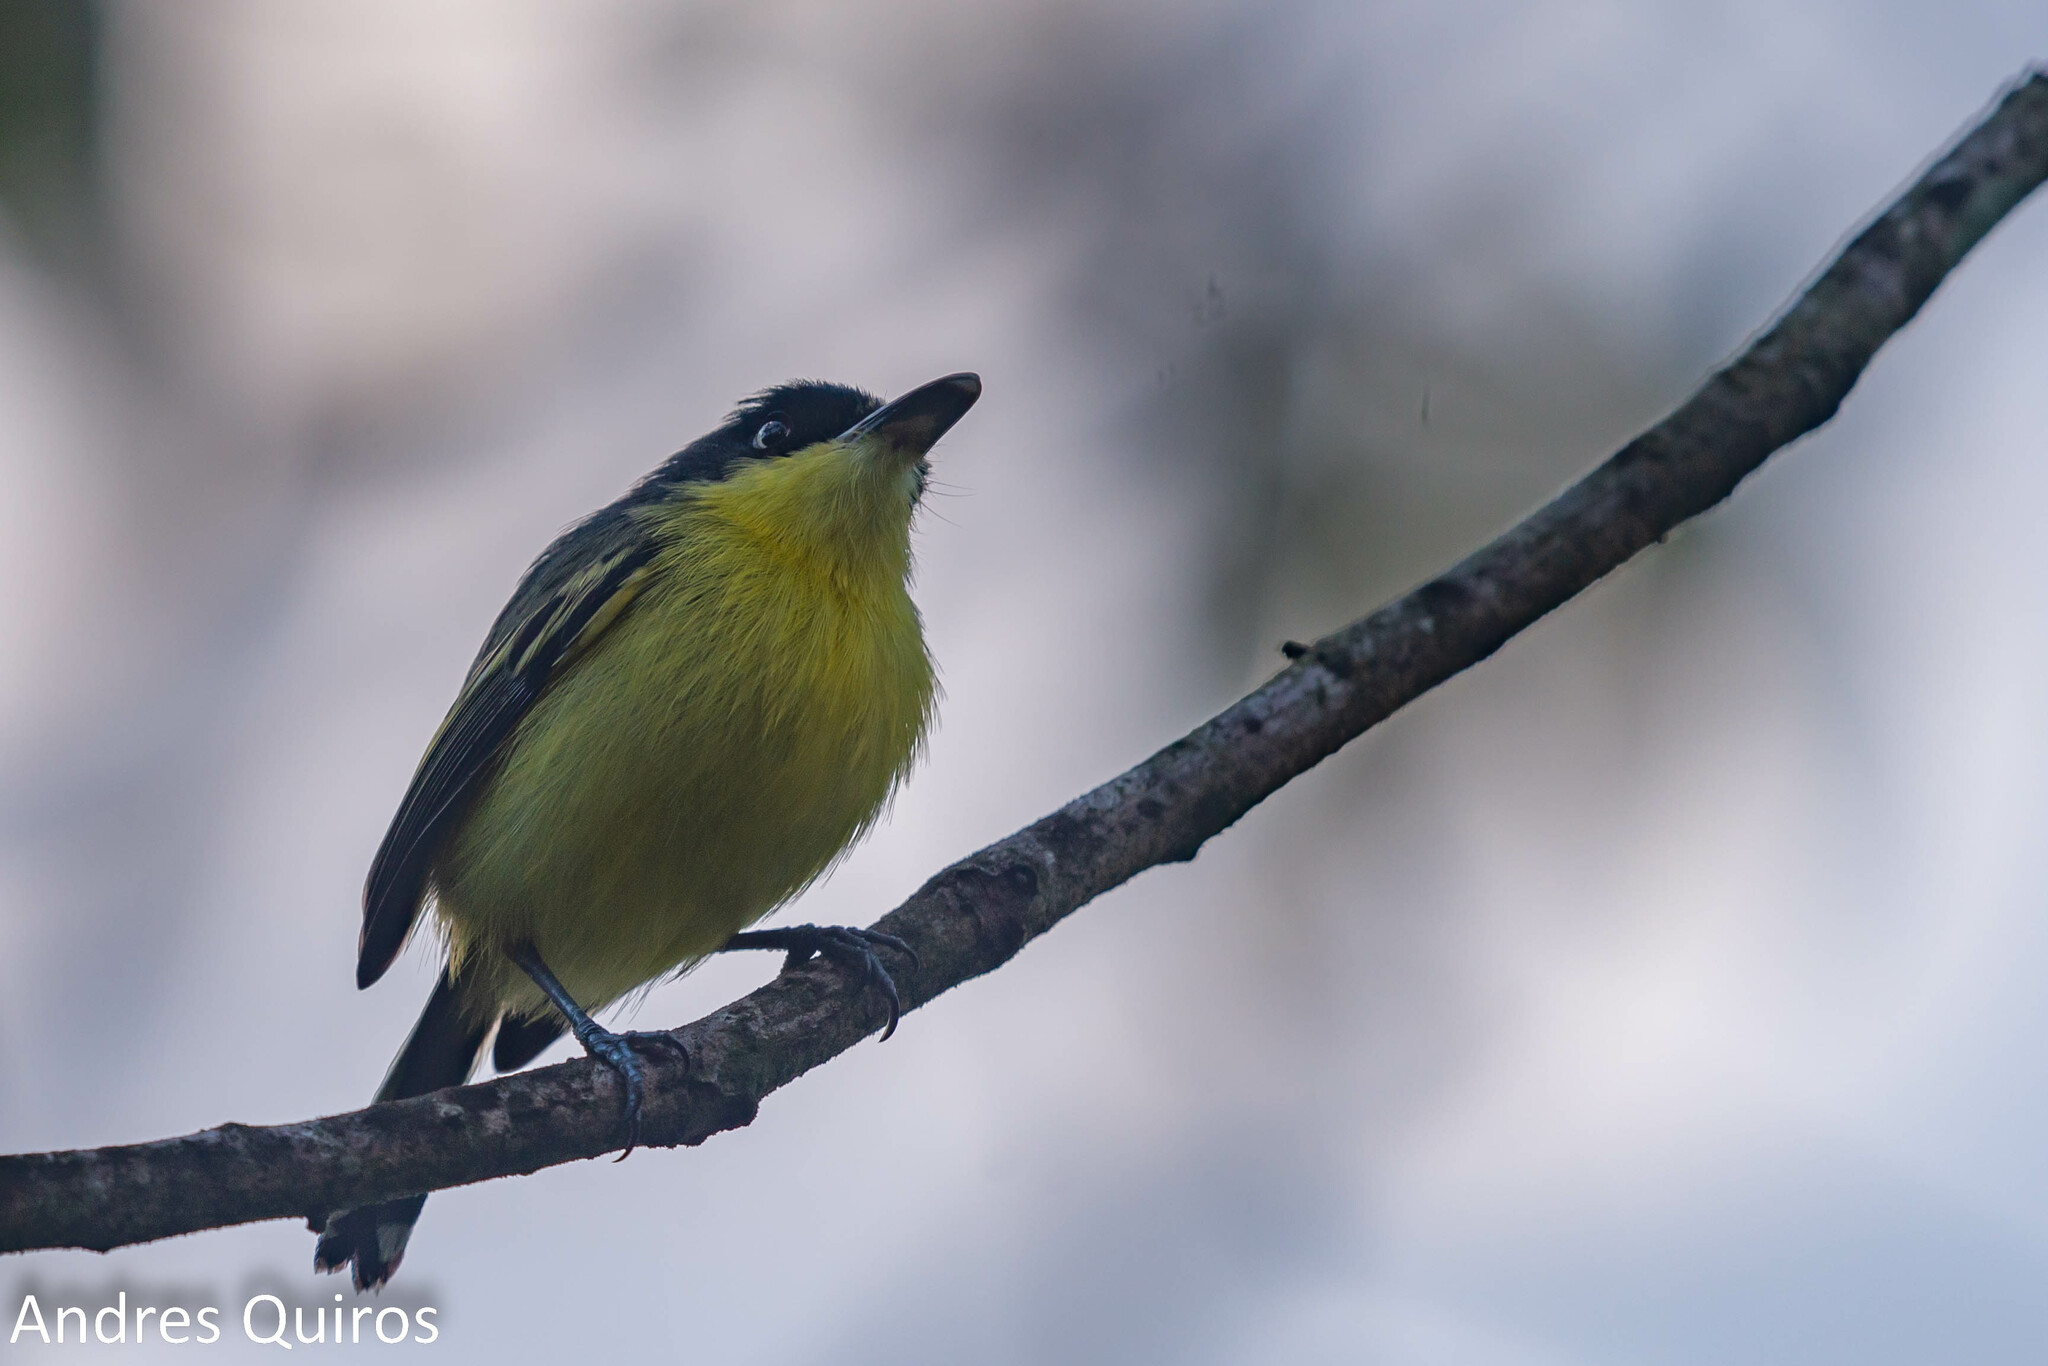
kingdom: Animalia
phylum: Chordata
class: Aves
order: Passeriformes
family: Tyrannidae
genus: Todirostrum
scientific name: Todirostrum cinereum
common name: Common tody-flycatcher
